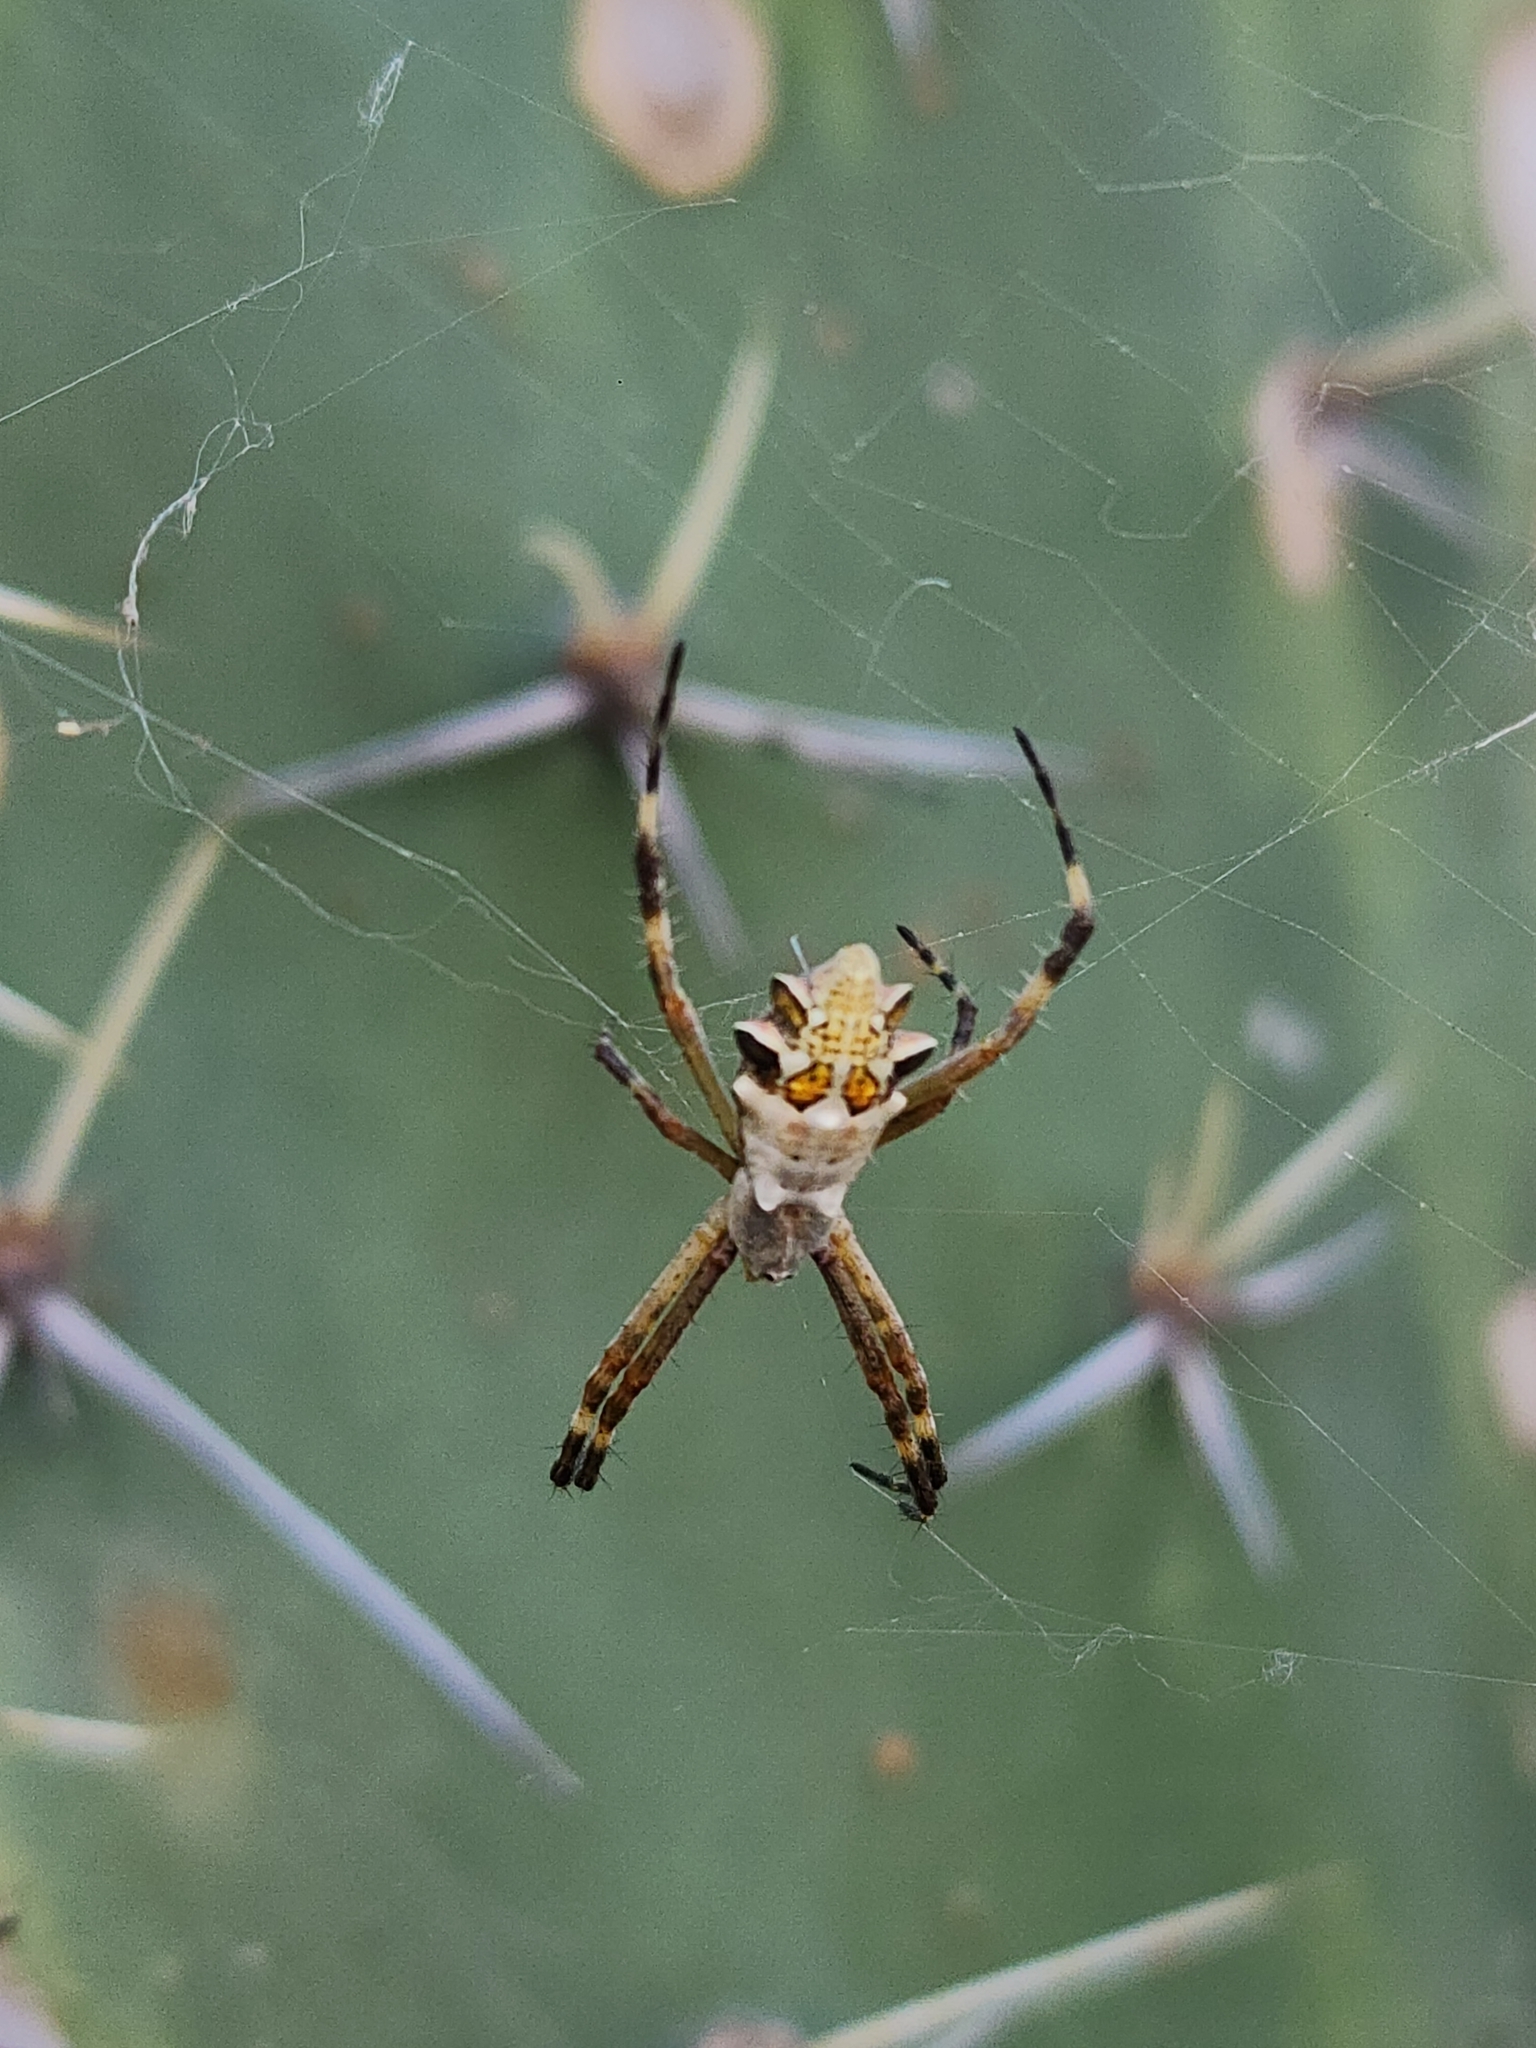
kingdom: Animalia
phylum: Arthropoda
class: Arachnida
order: Araneae
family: Araneidae
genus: Argiope
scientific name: Argiope argentata
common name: Orb weavers
